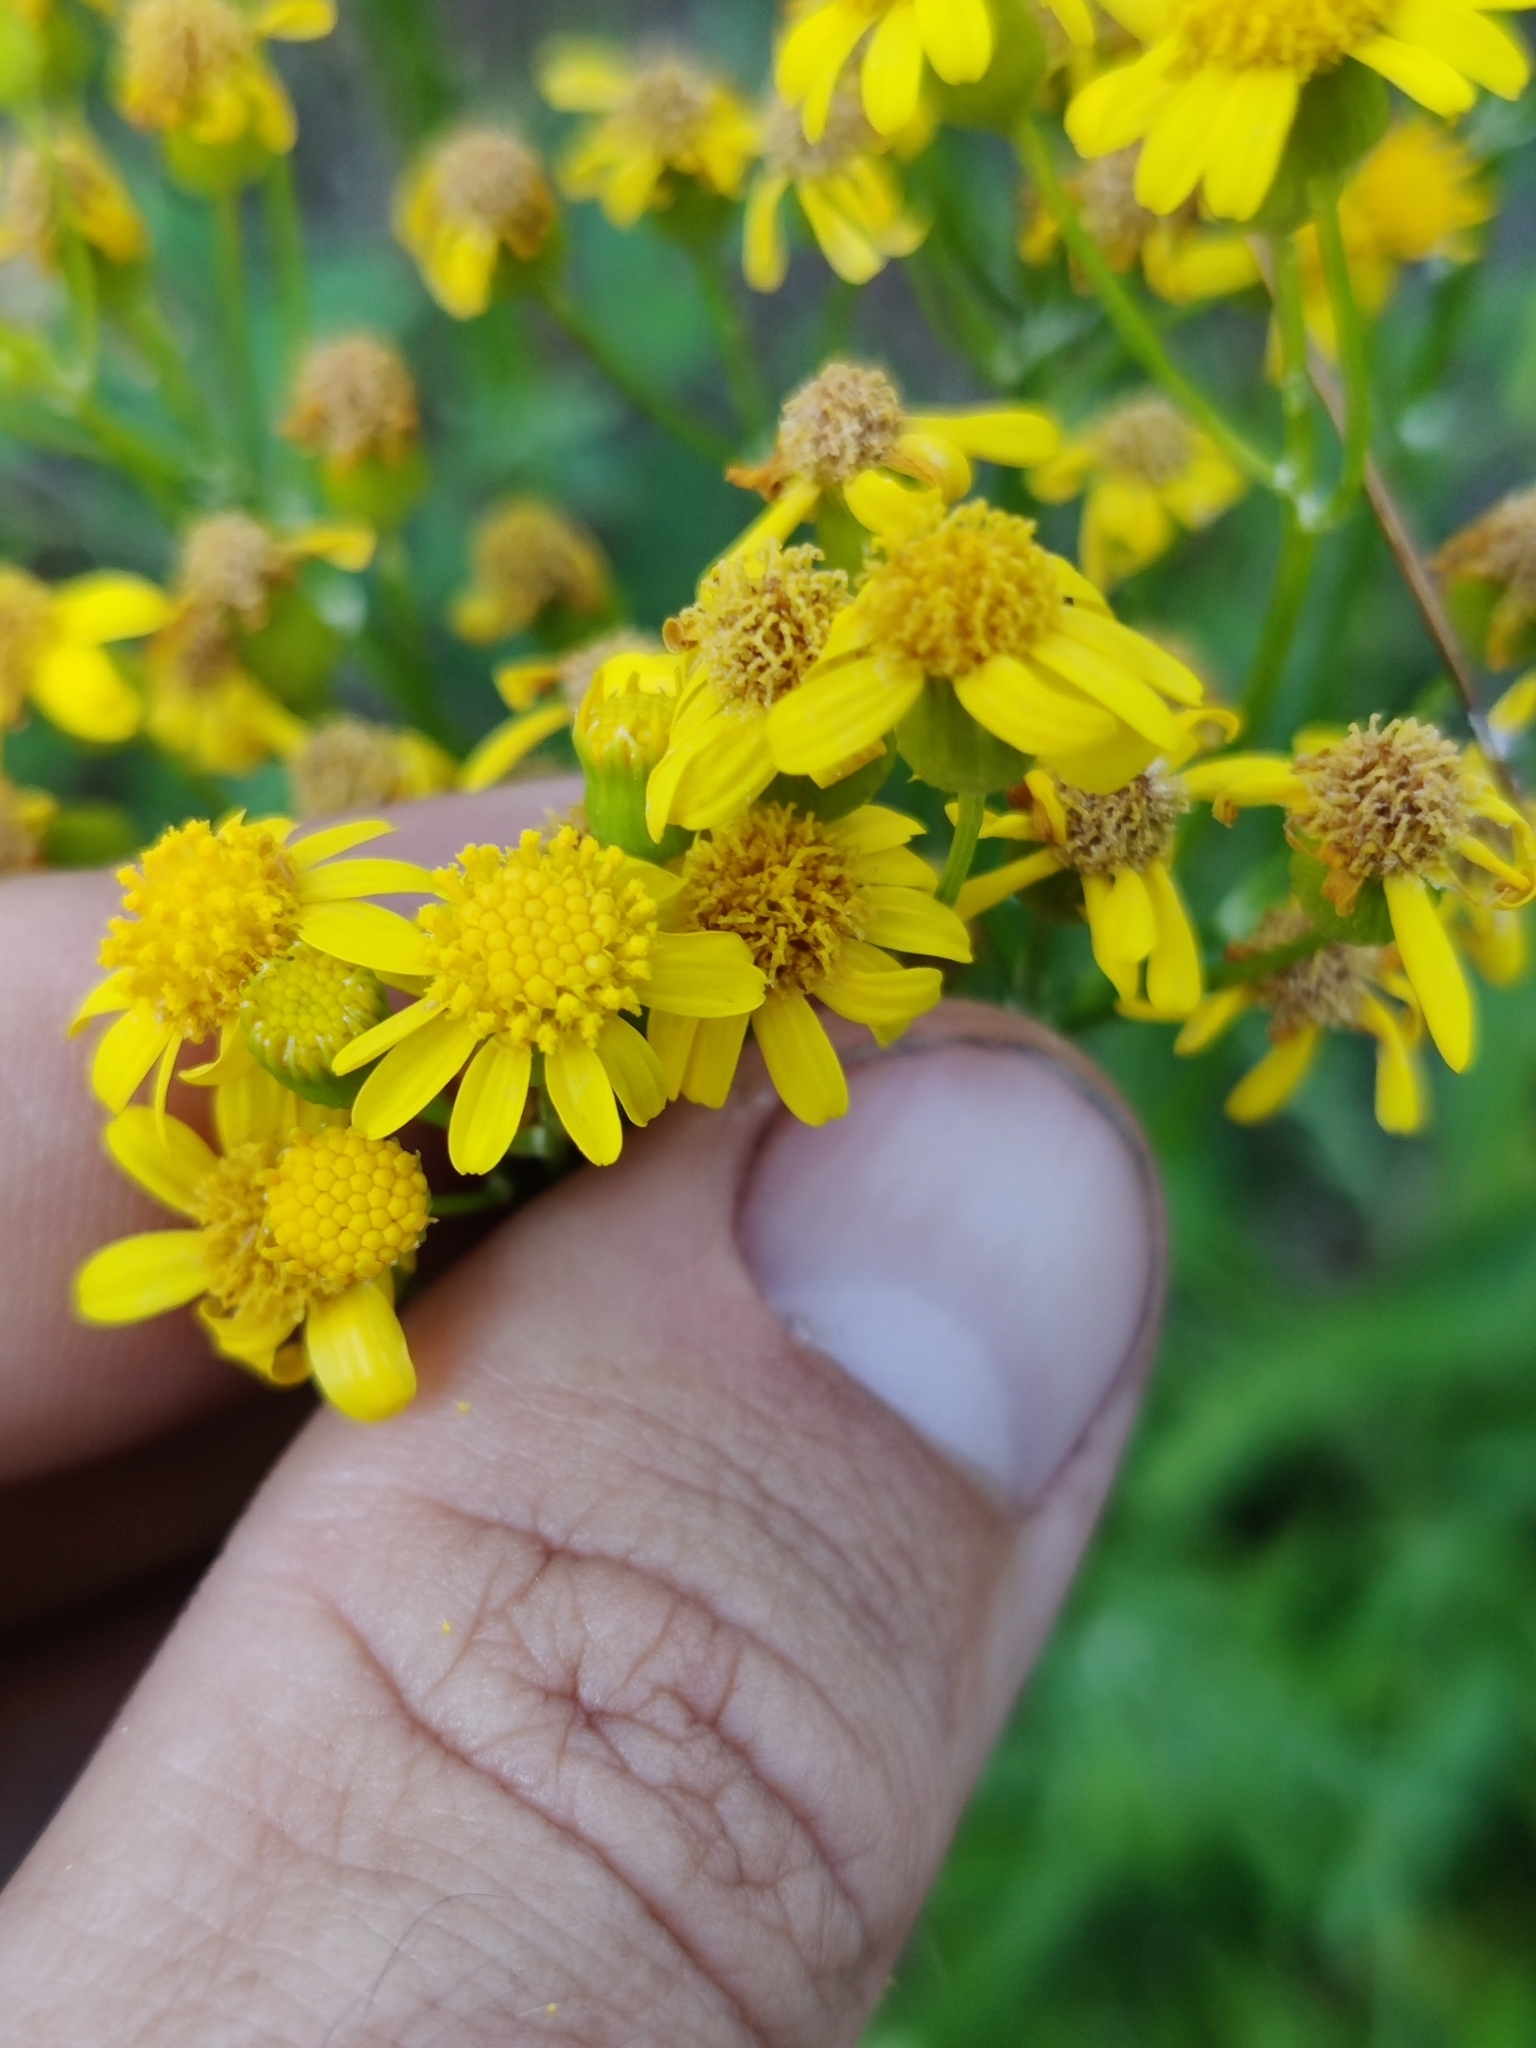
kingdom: Plantae
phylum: Tracheophyta
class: Magnoliopsida
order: Asterales
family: Asteraceae
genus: Packera
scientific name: Packera anonyma
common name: Small ragwort
